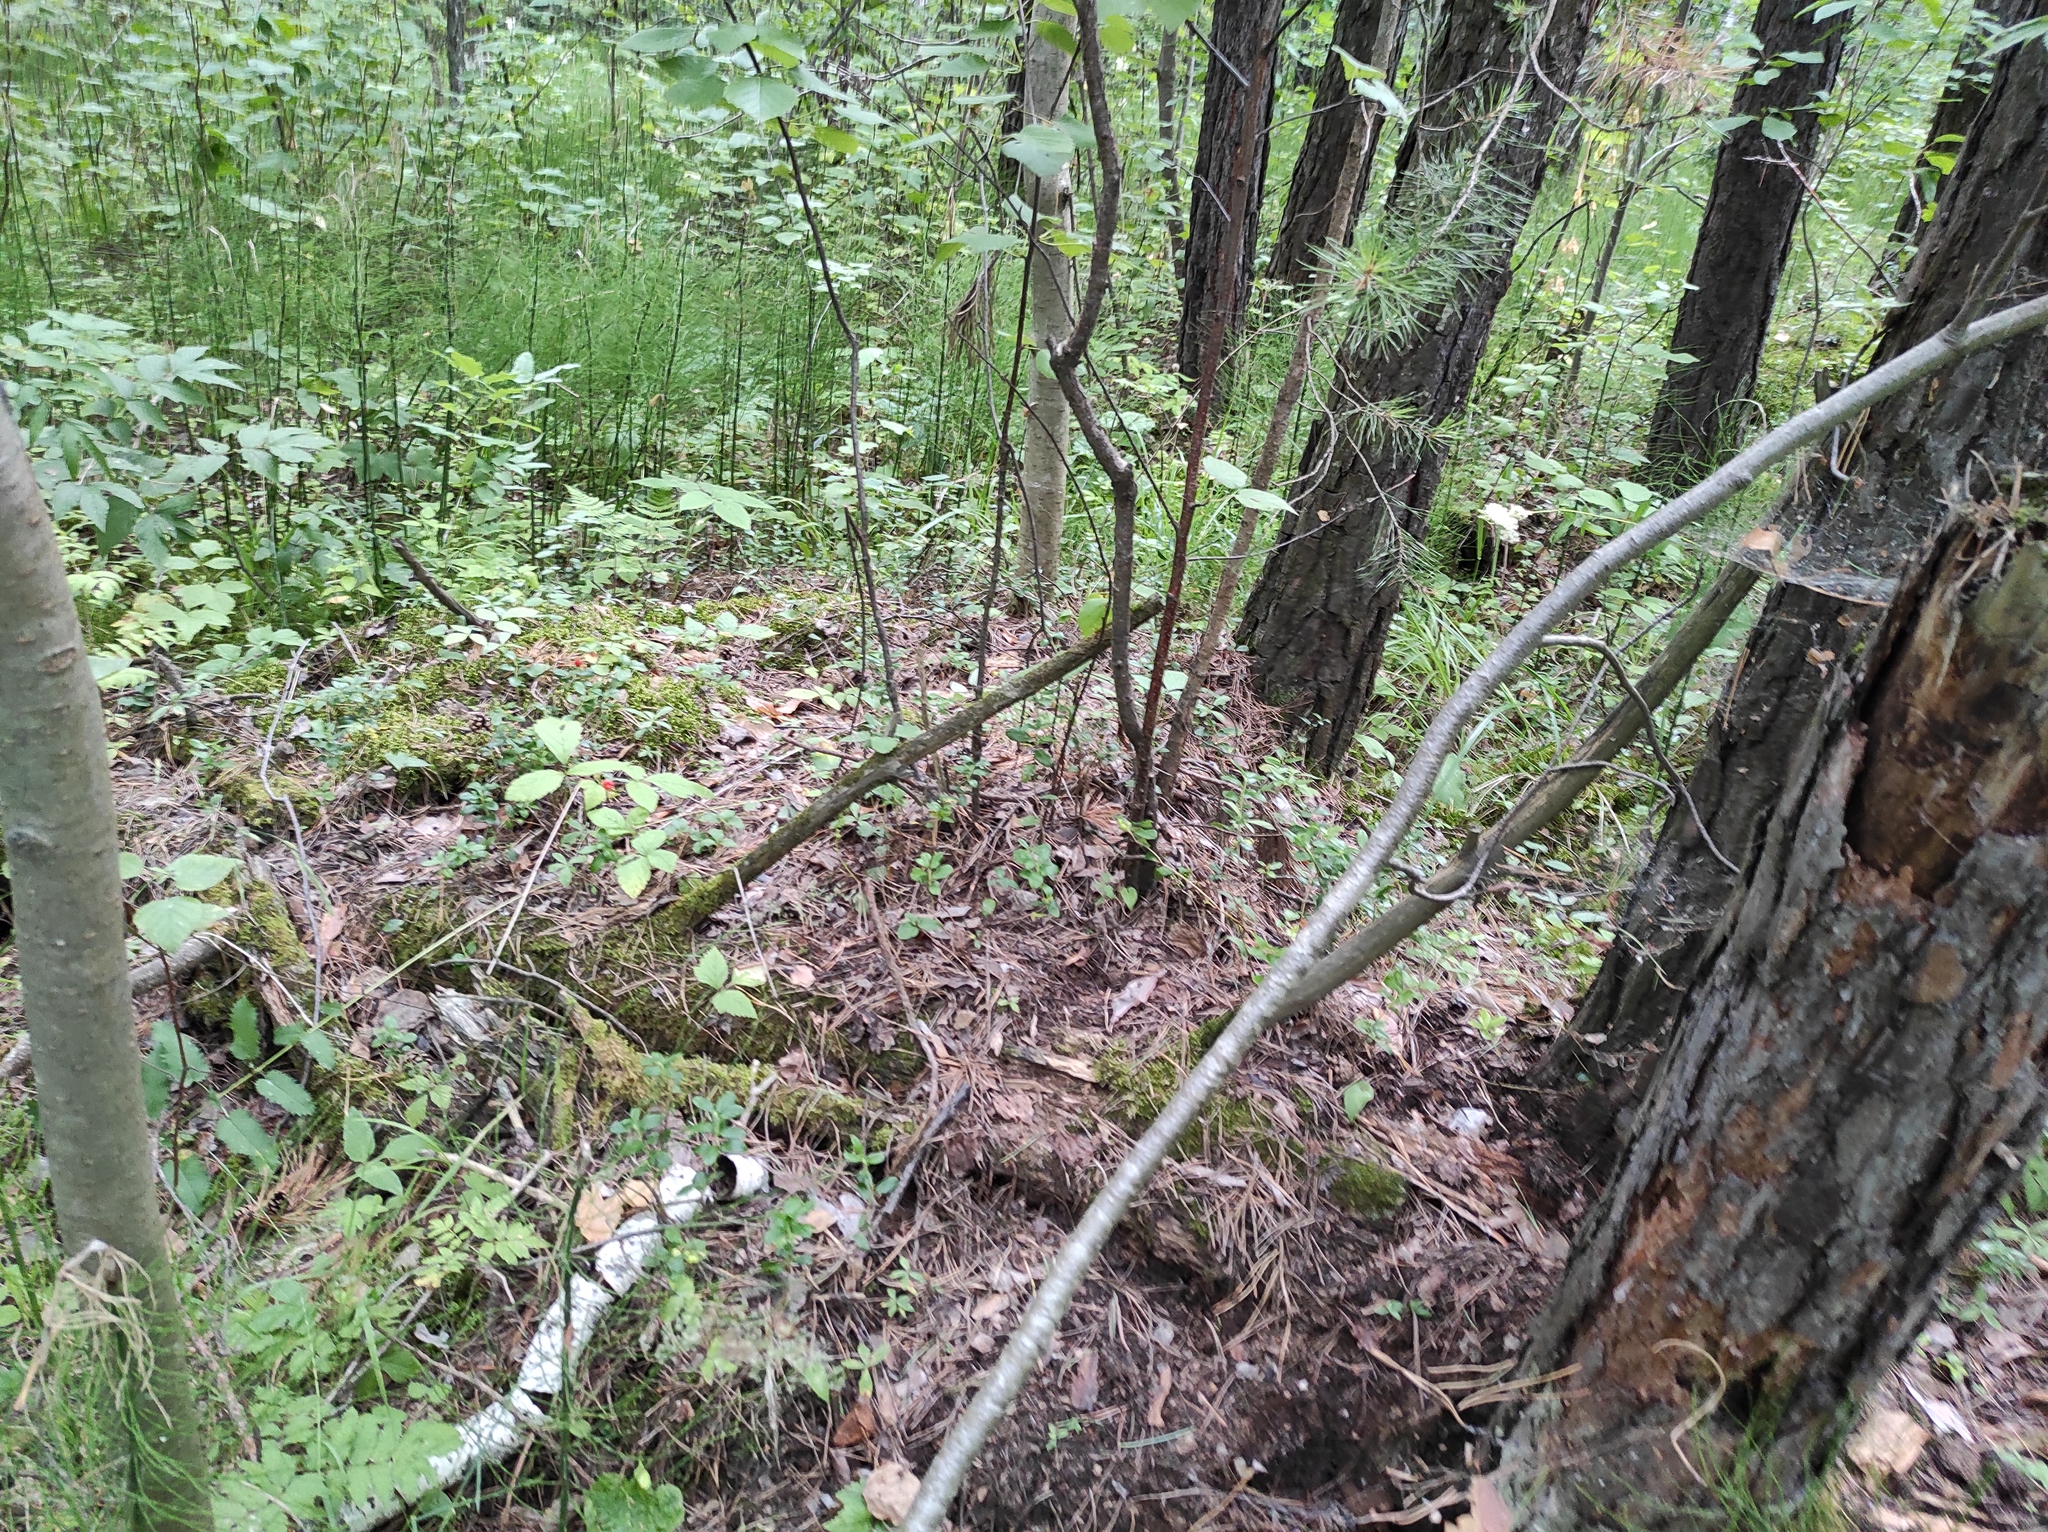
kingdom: Plantae
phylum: Tracheophyta
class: Pinopsida
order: Pinales
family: Pinaceae
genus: Pinus
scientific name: Pinus sylvestris
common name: Scots pine
